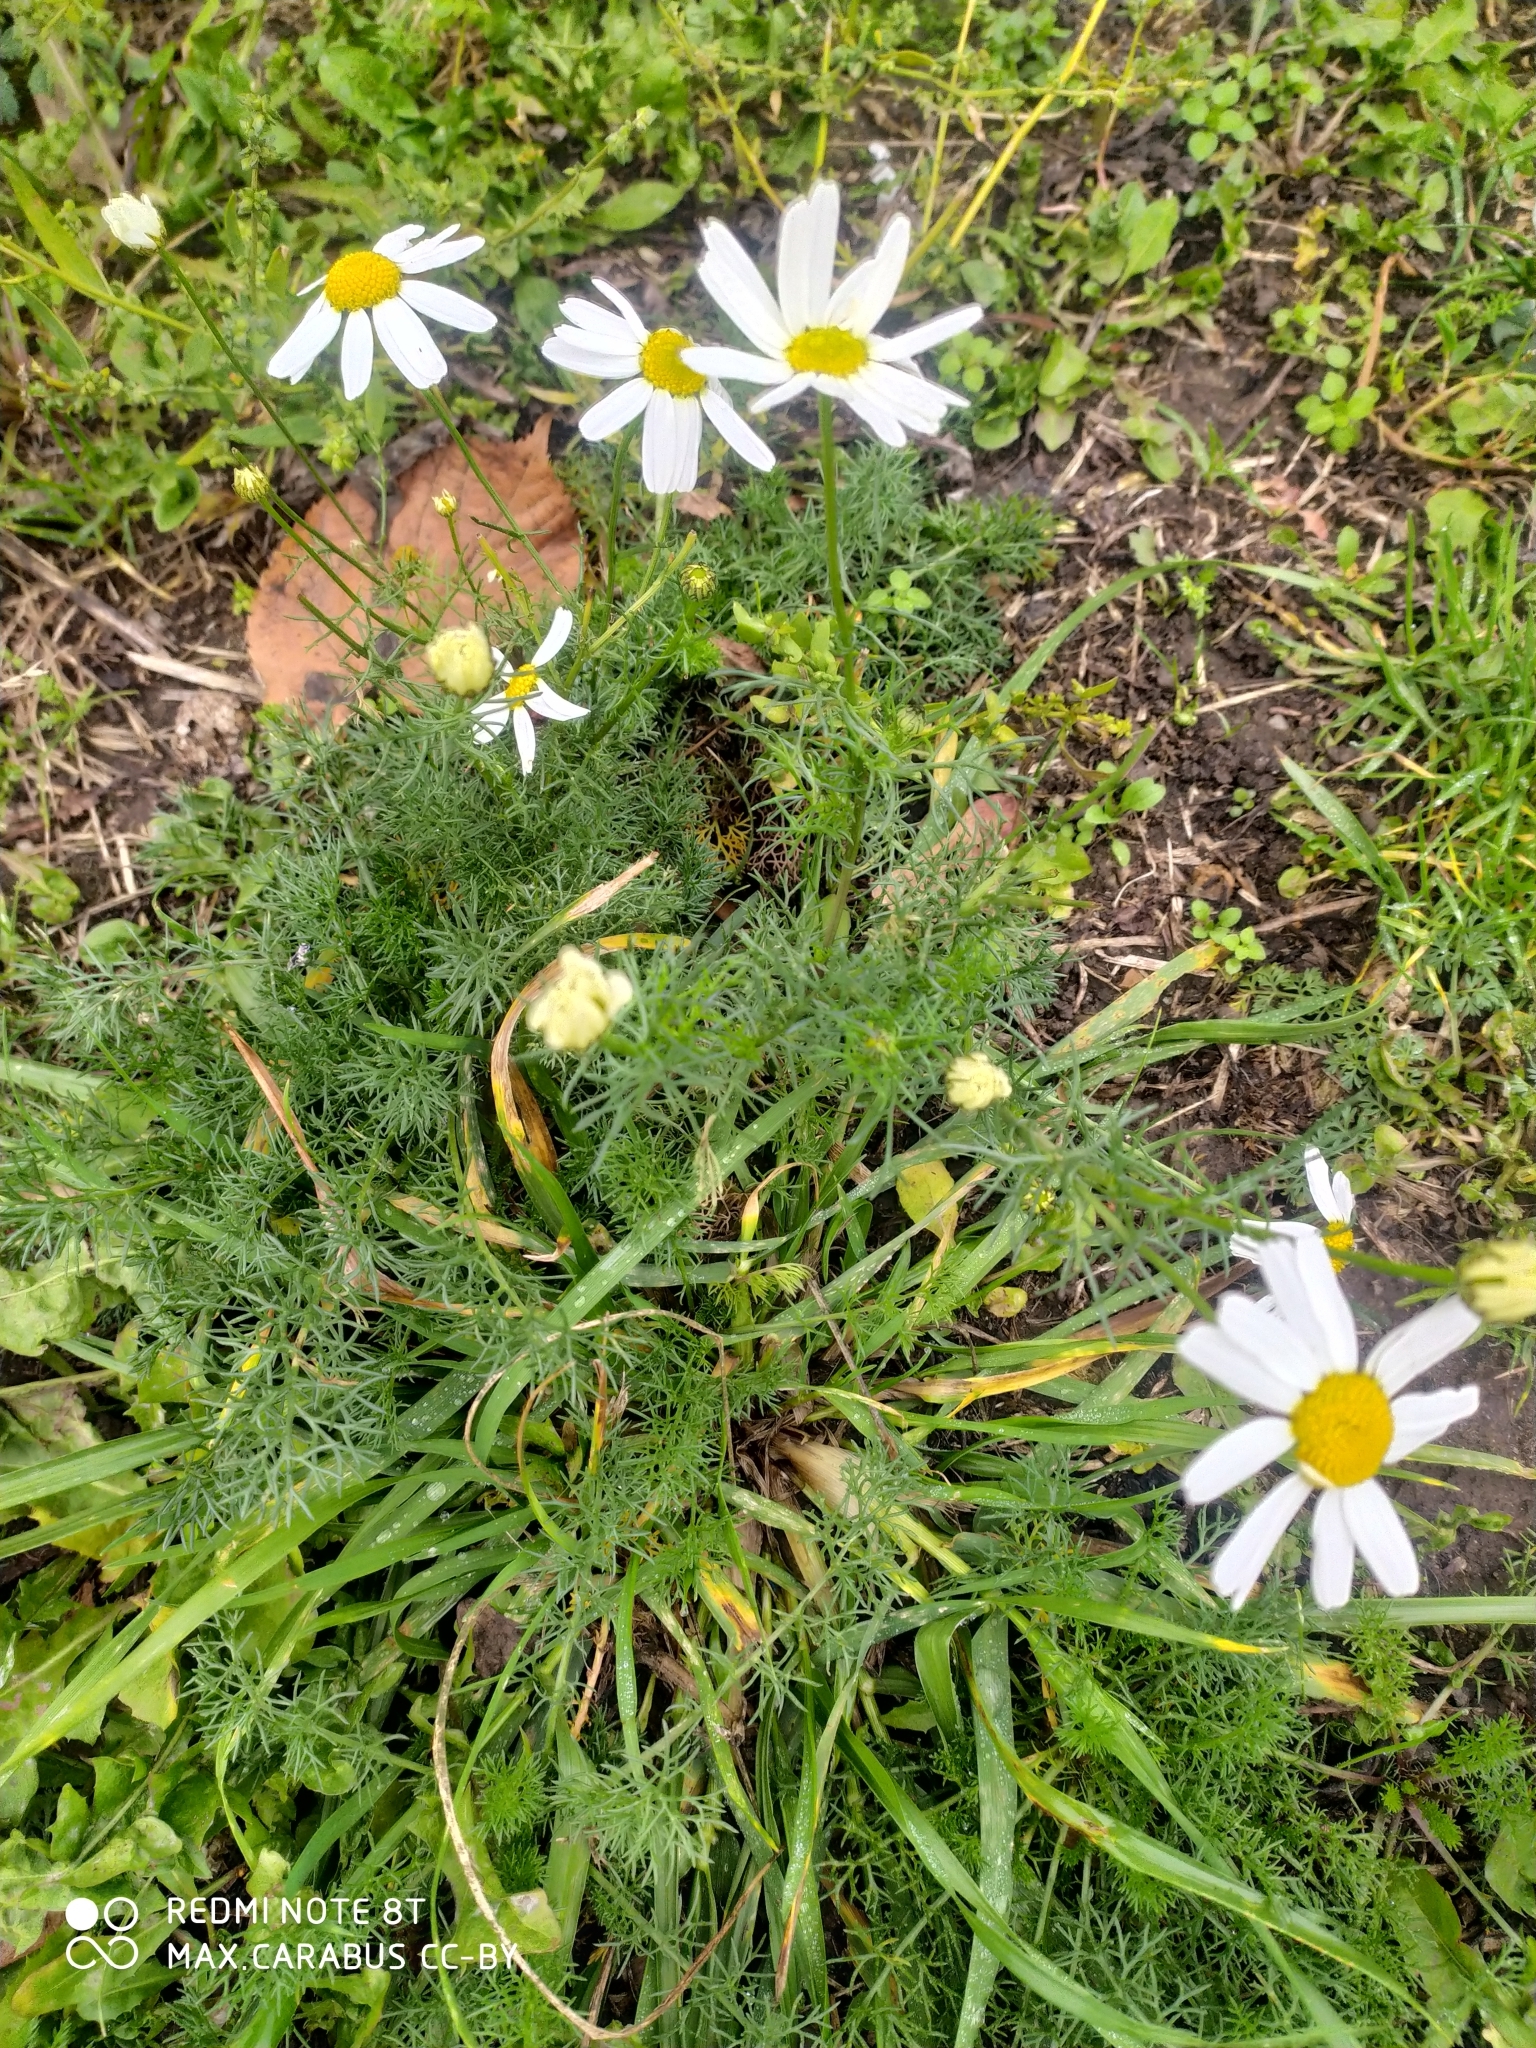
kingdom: Plantae
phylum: Tracheophyta
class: Magnoliopsida
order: Asterales
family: Asteraceae
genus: Tripleurospermum
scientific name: Tripleurospermum inodorum
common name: Scentless mayweed
